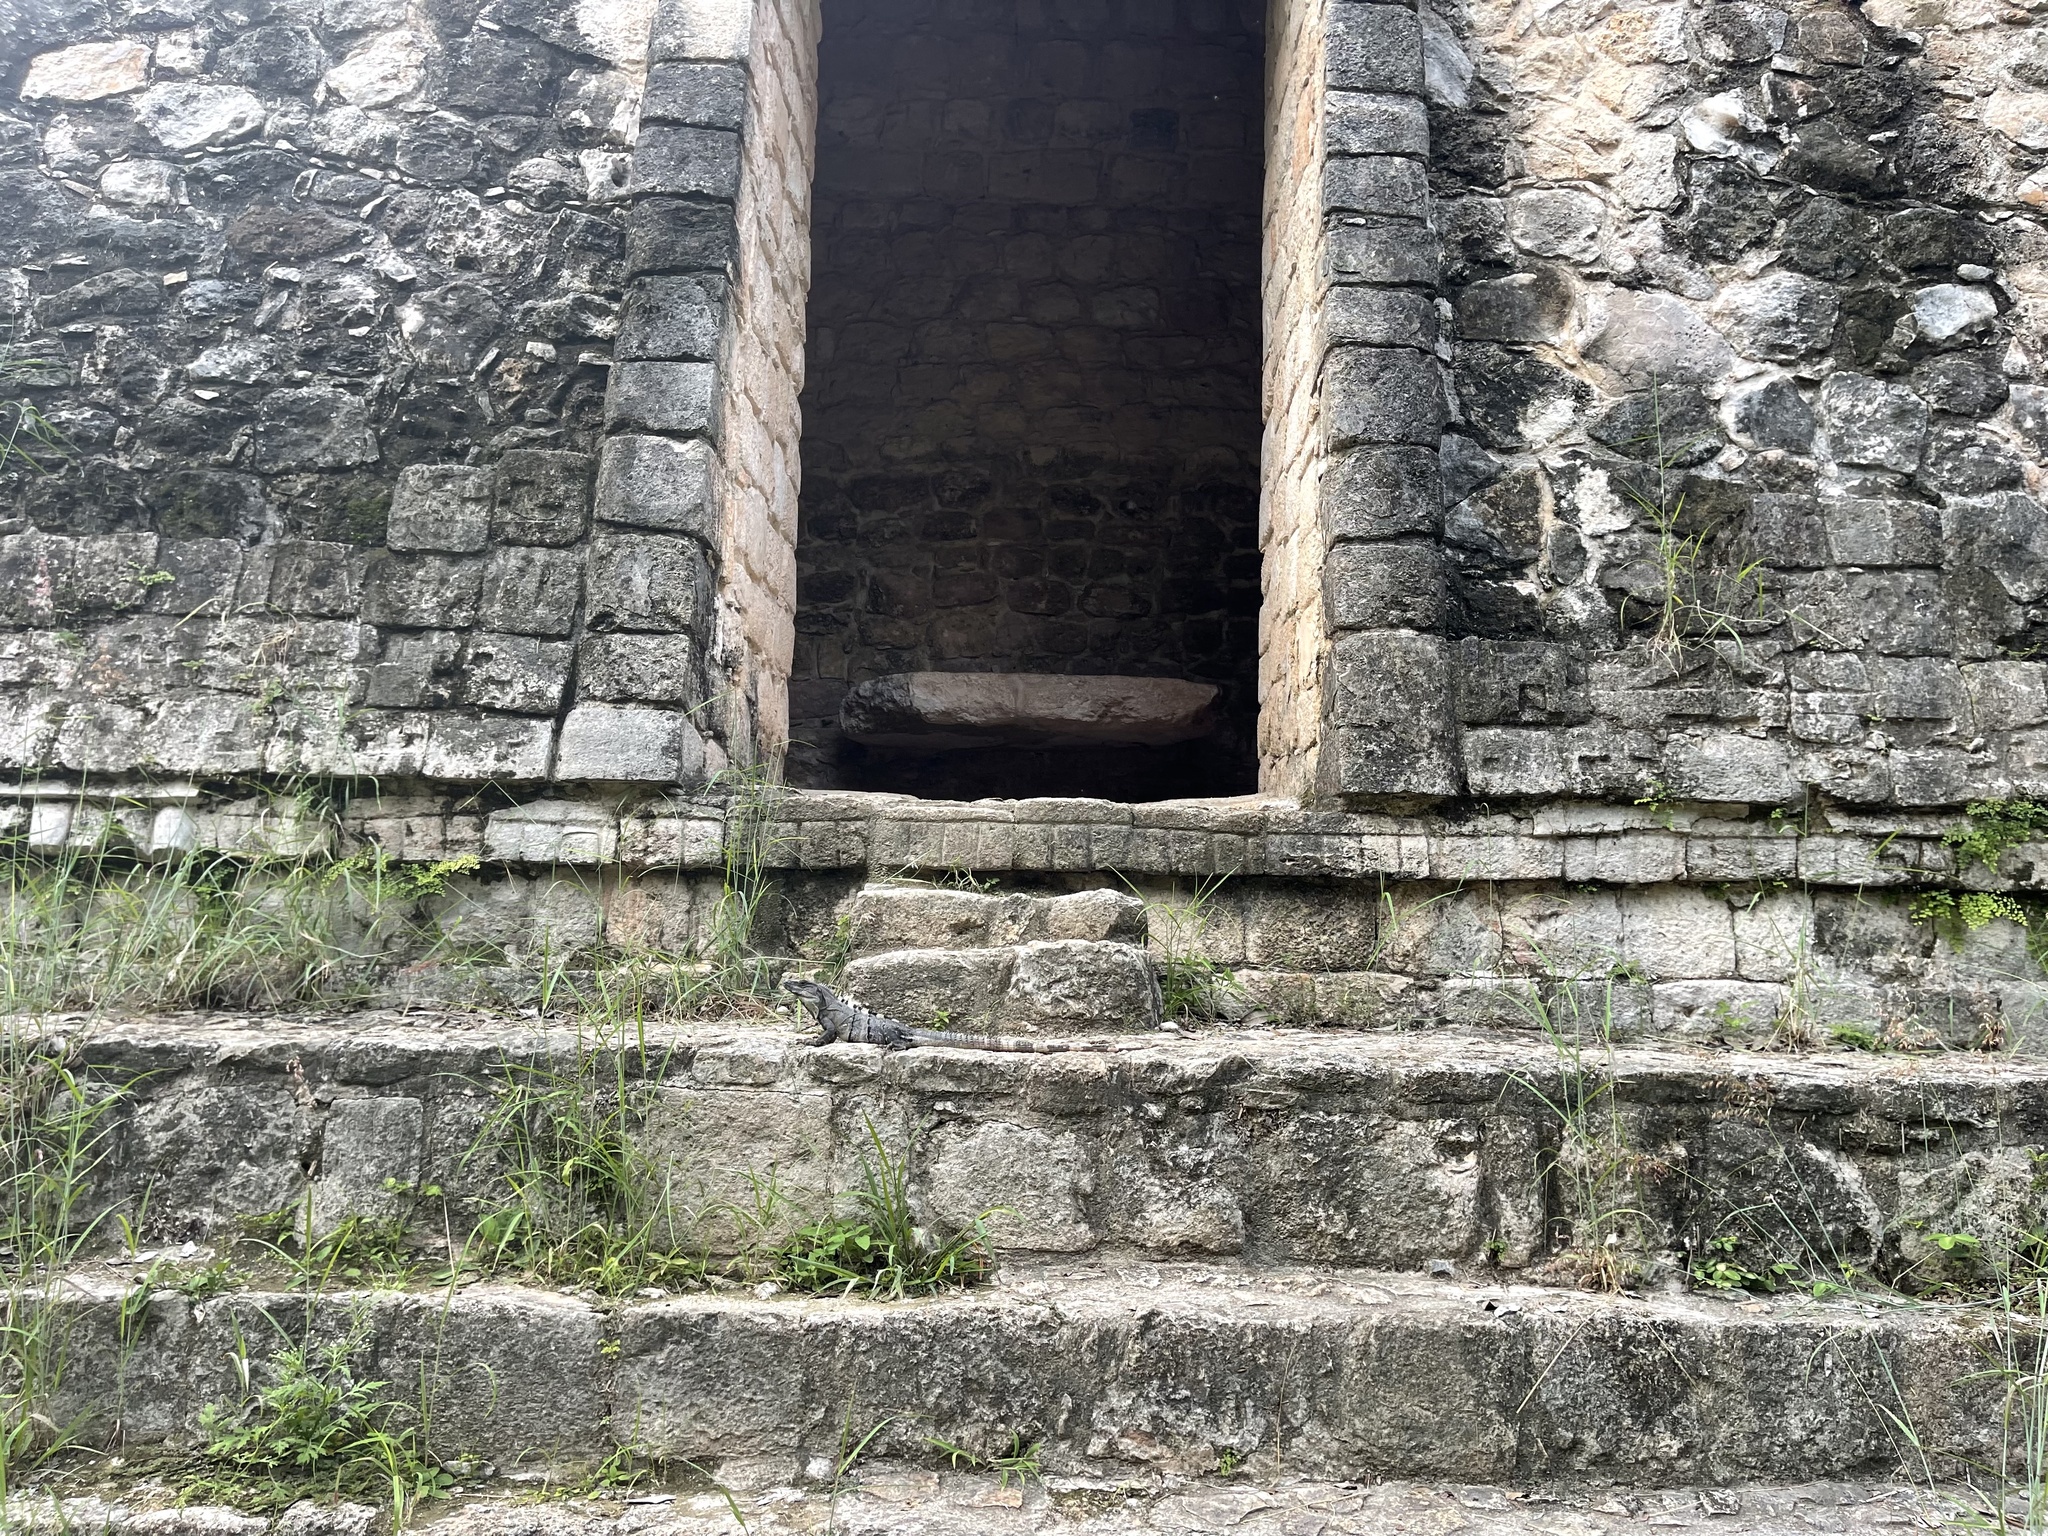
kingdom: Animalia
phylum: Chordata
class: Squamata
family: Iguanidae
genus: Ctenosaura
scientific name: Ctenosaura similis
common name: Black spiny-tailed iguana
